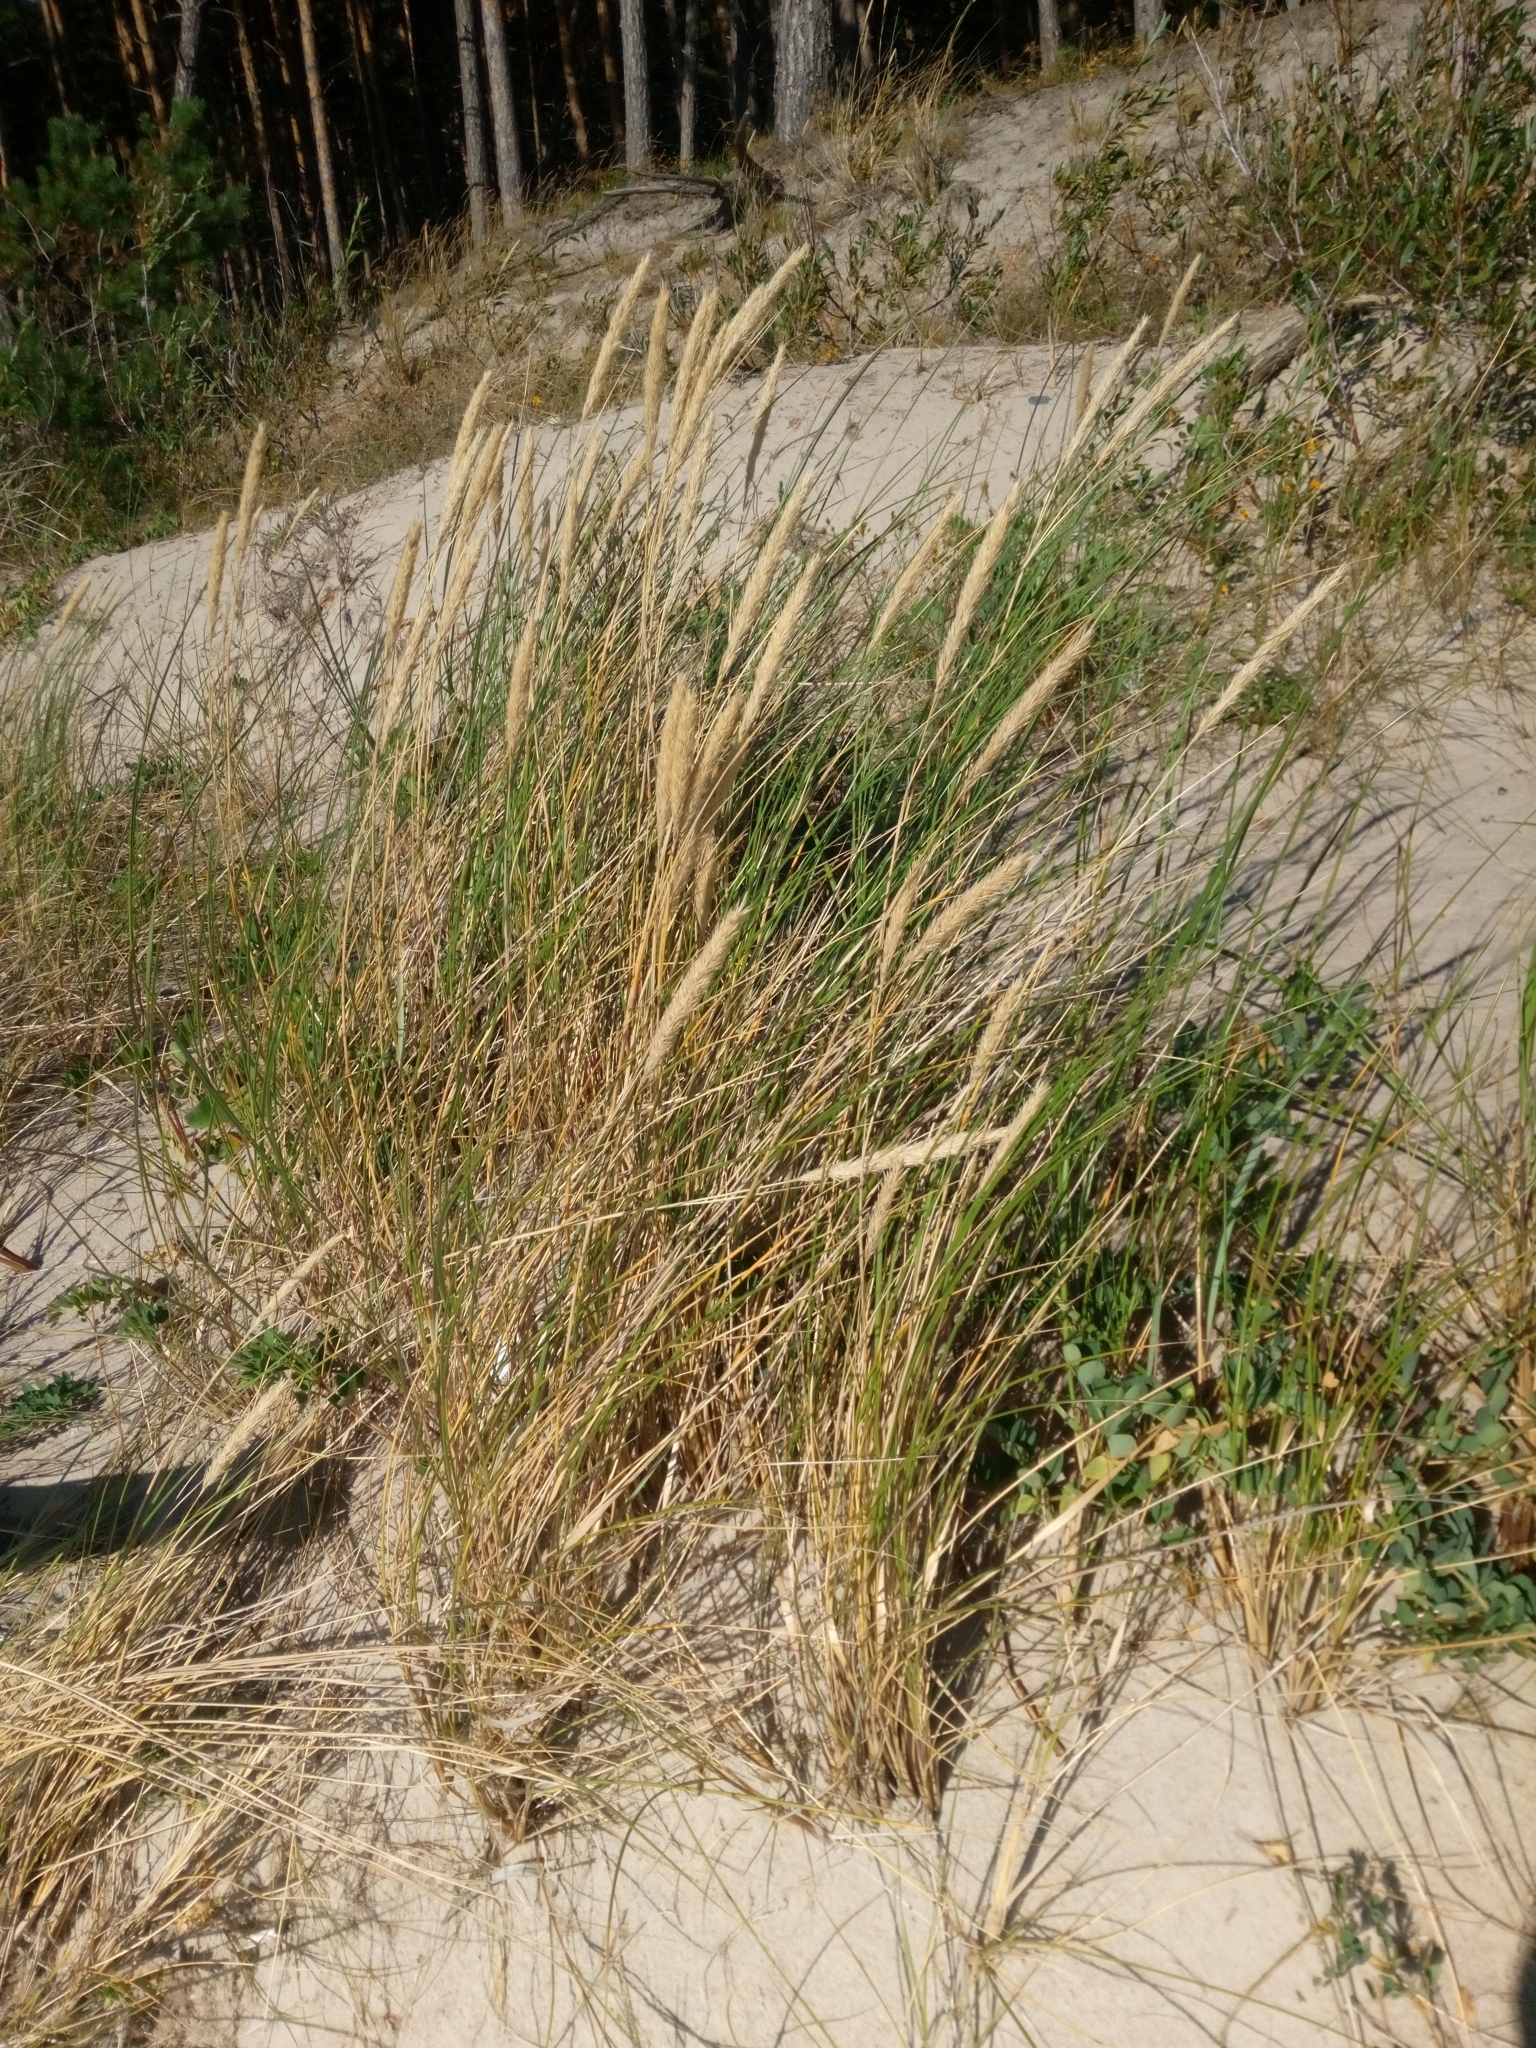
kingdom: Plantae
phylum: Tracheophyta
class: Liliopsida
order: Poales
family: Poaceae
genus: Calamagrostis
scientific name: Calamagrostis arenaria
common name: European beachgrass
